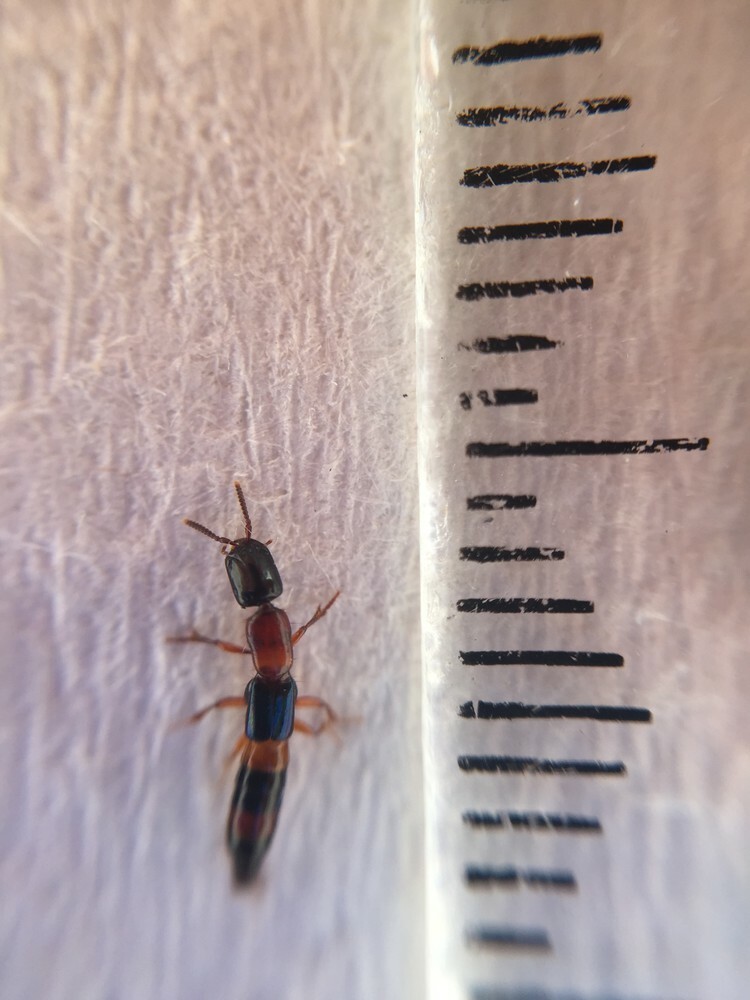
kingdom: Animalia
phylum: Arthropoda
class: Insecta
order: Coleoptera
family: Staphylinidae
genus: Australinus
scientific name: Australinus cyaneipennis
